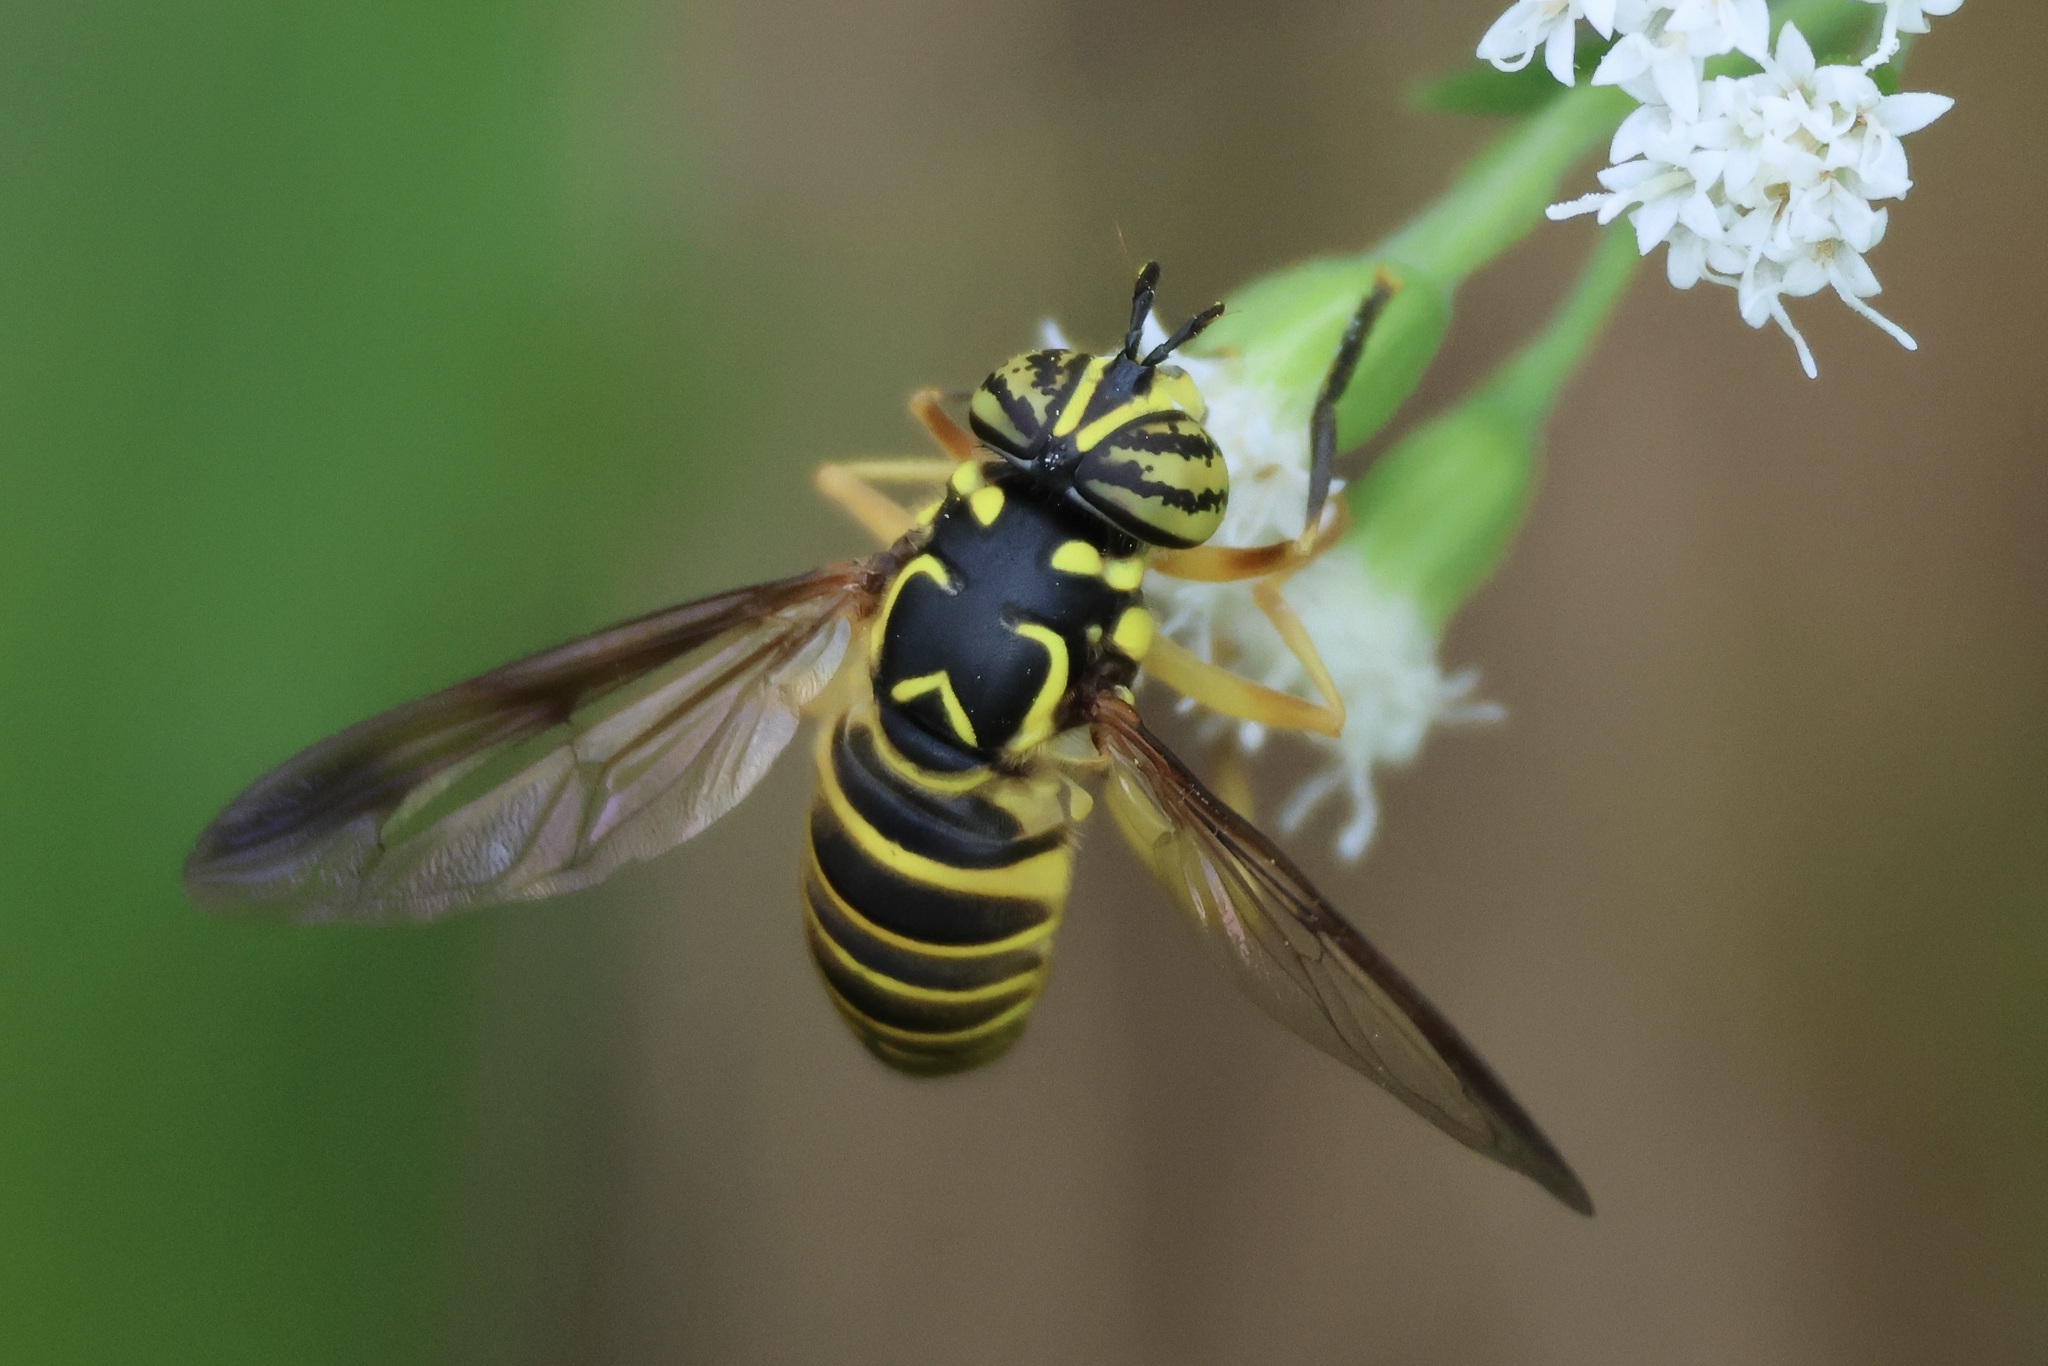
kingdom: Animalia
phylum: Arthropoda
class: Insecta
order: Diptera
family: Syrphidae
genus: Spilomyia
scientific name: Spilomyia longicornis
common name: Eastern hornet fly
